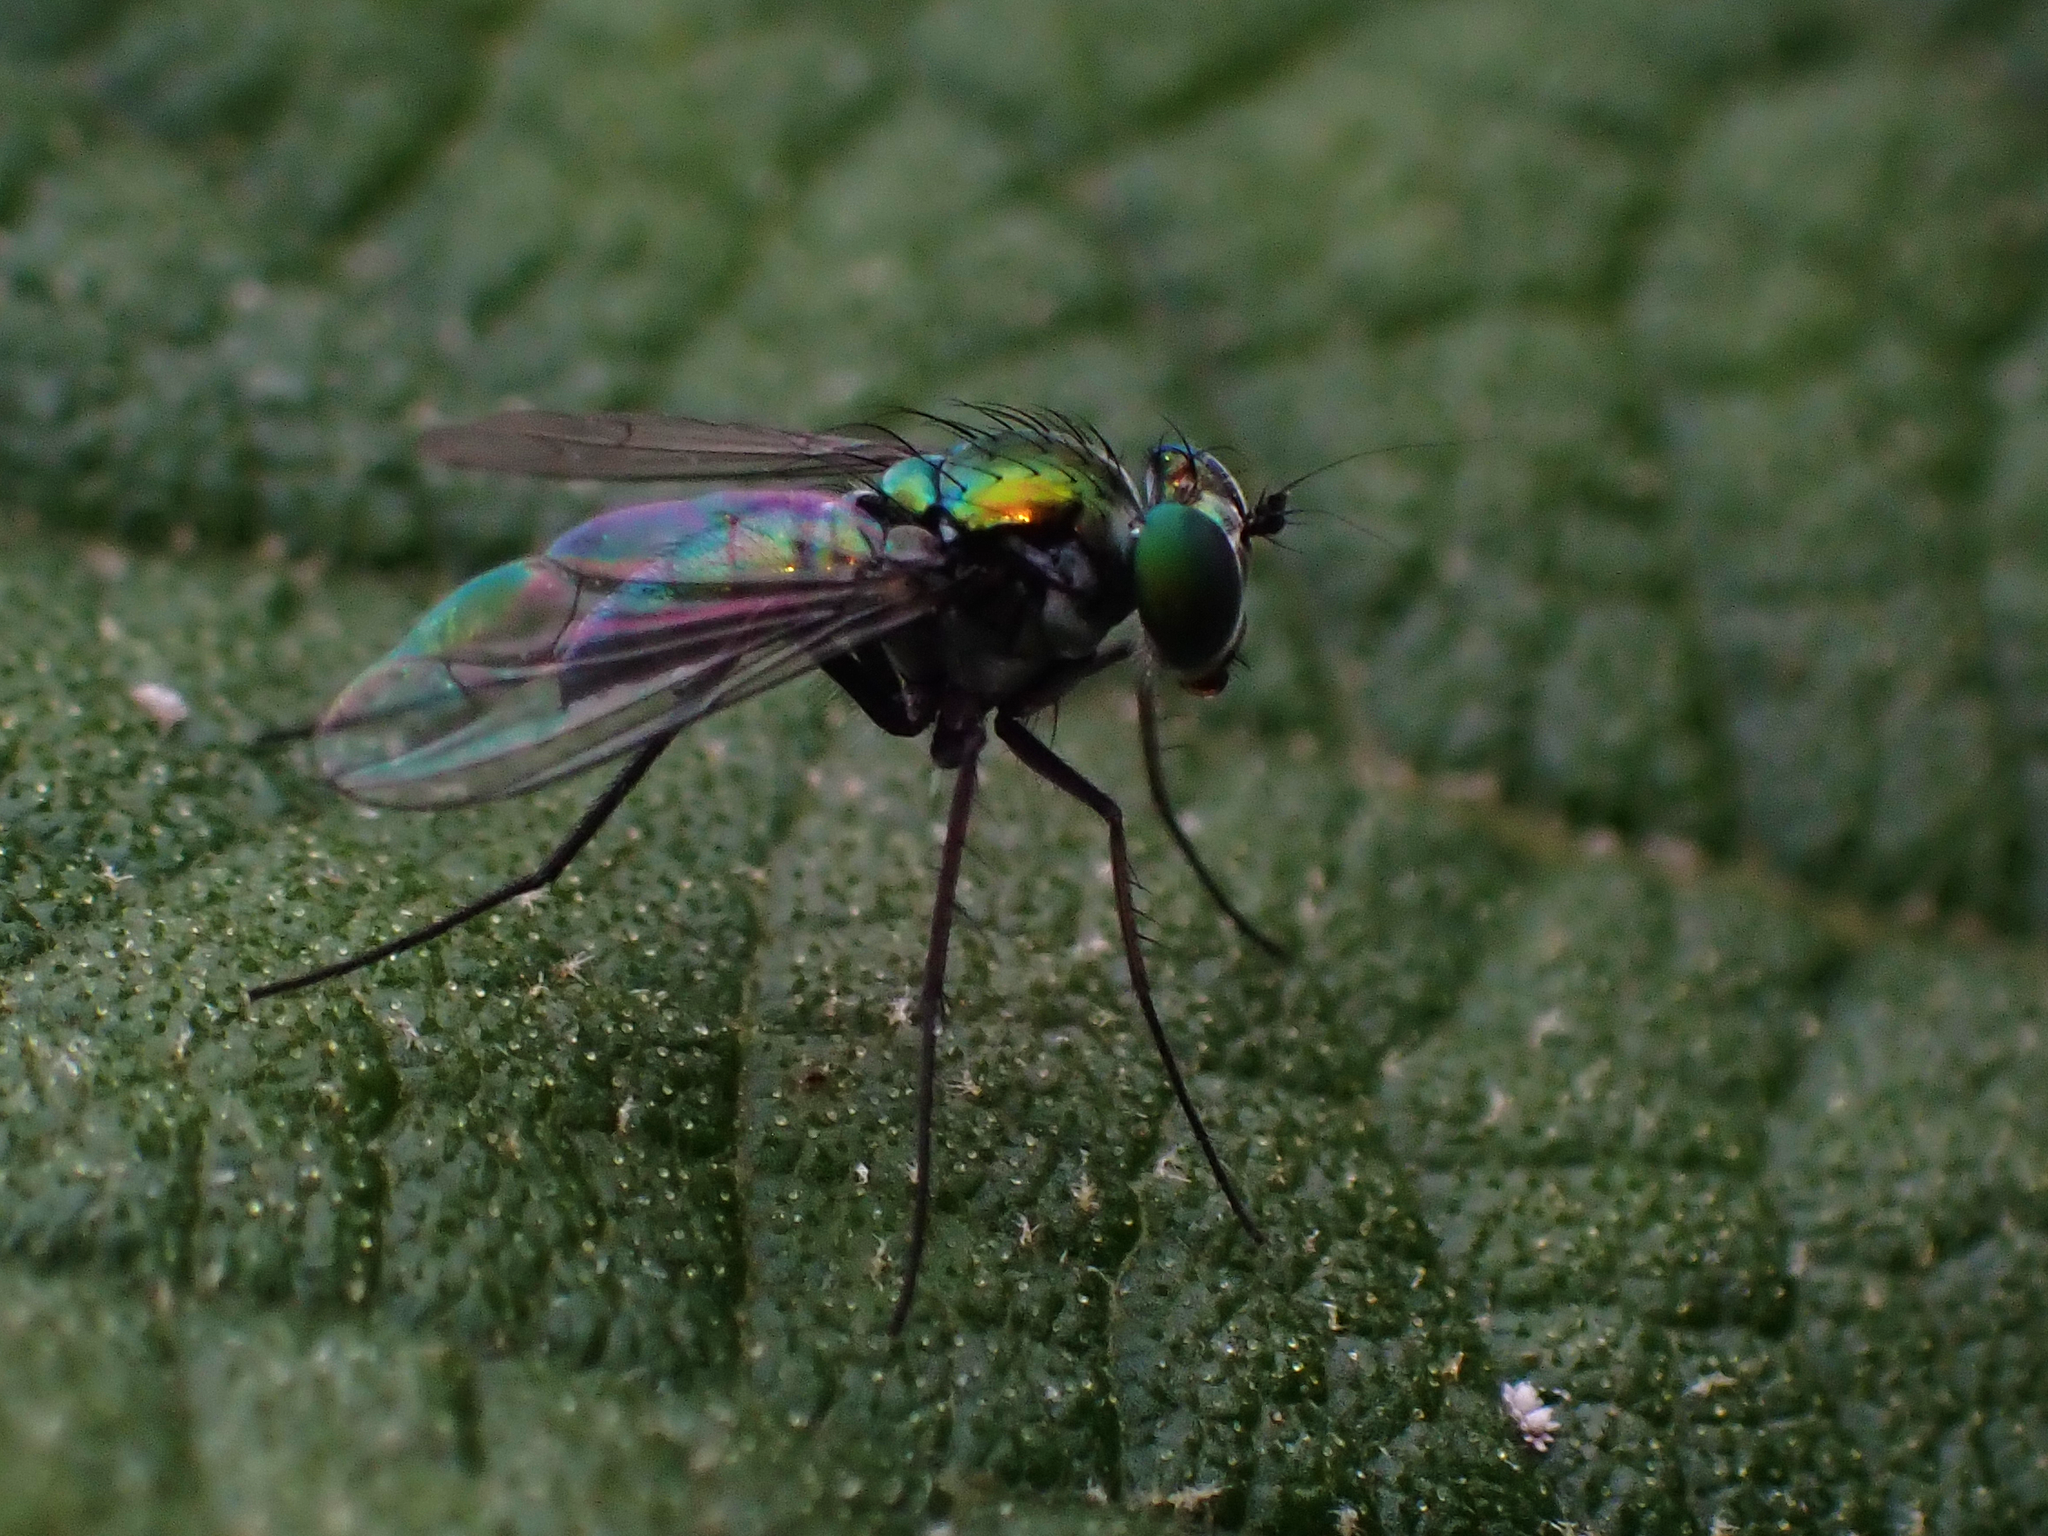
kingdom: Animalia
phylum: Arthropoda
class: Insecta
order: Diptera
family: Dolichopodidae
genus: Condylostylus
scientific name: Condylostylus purpureus
